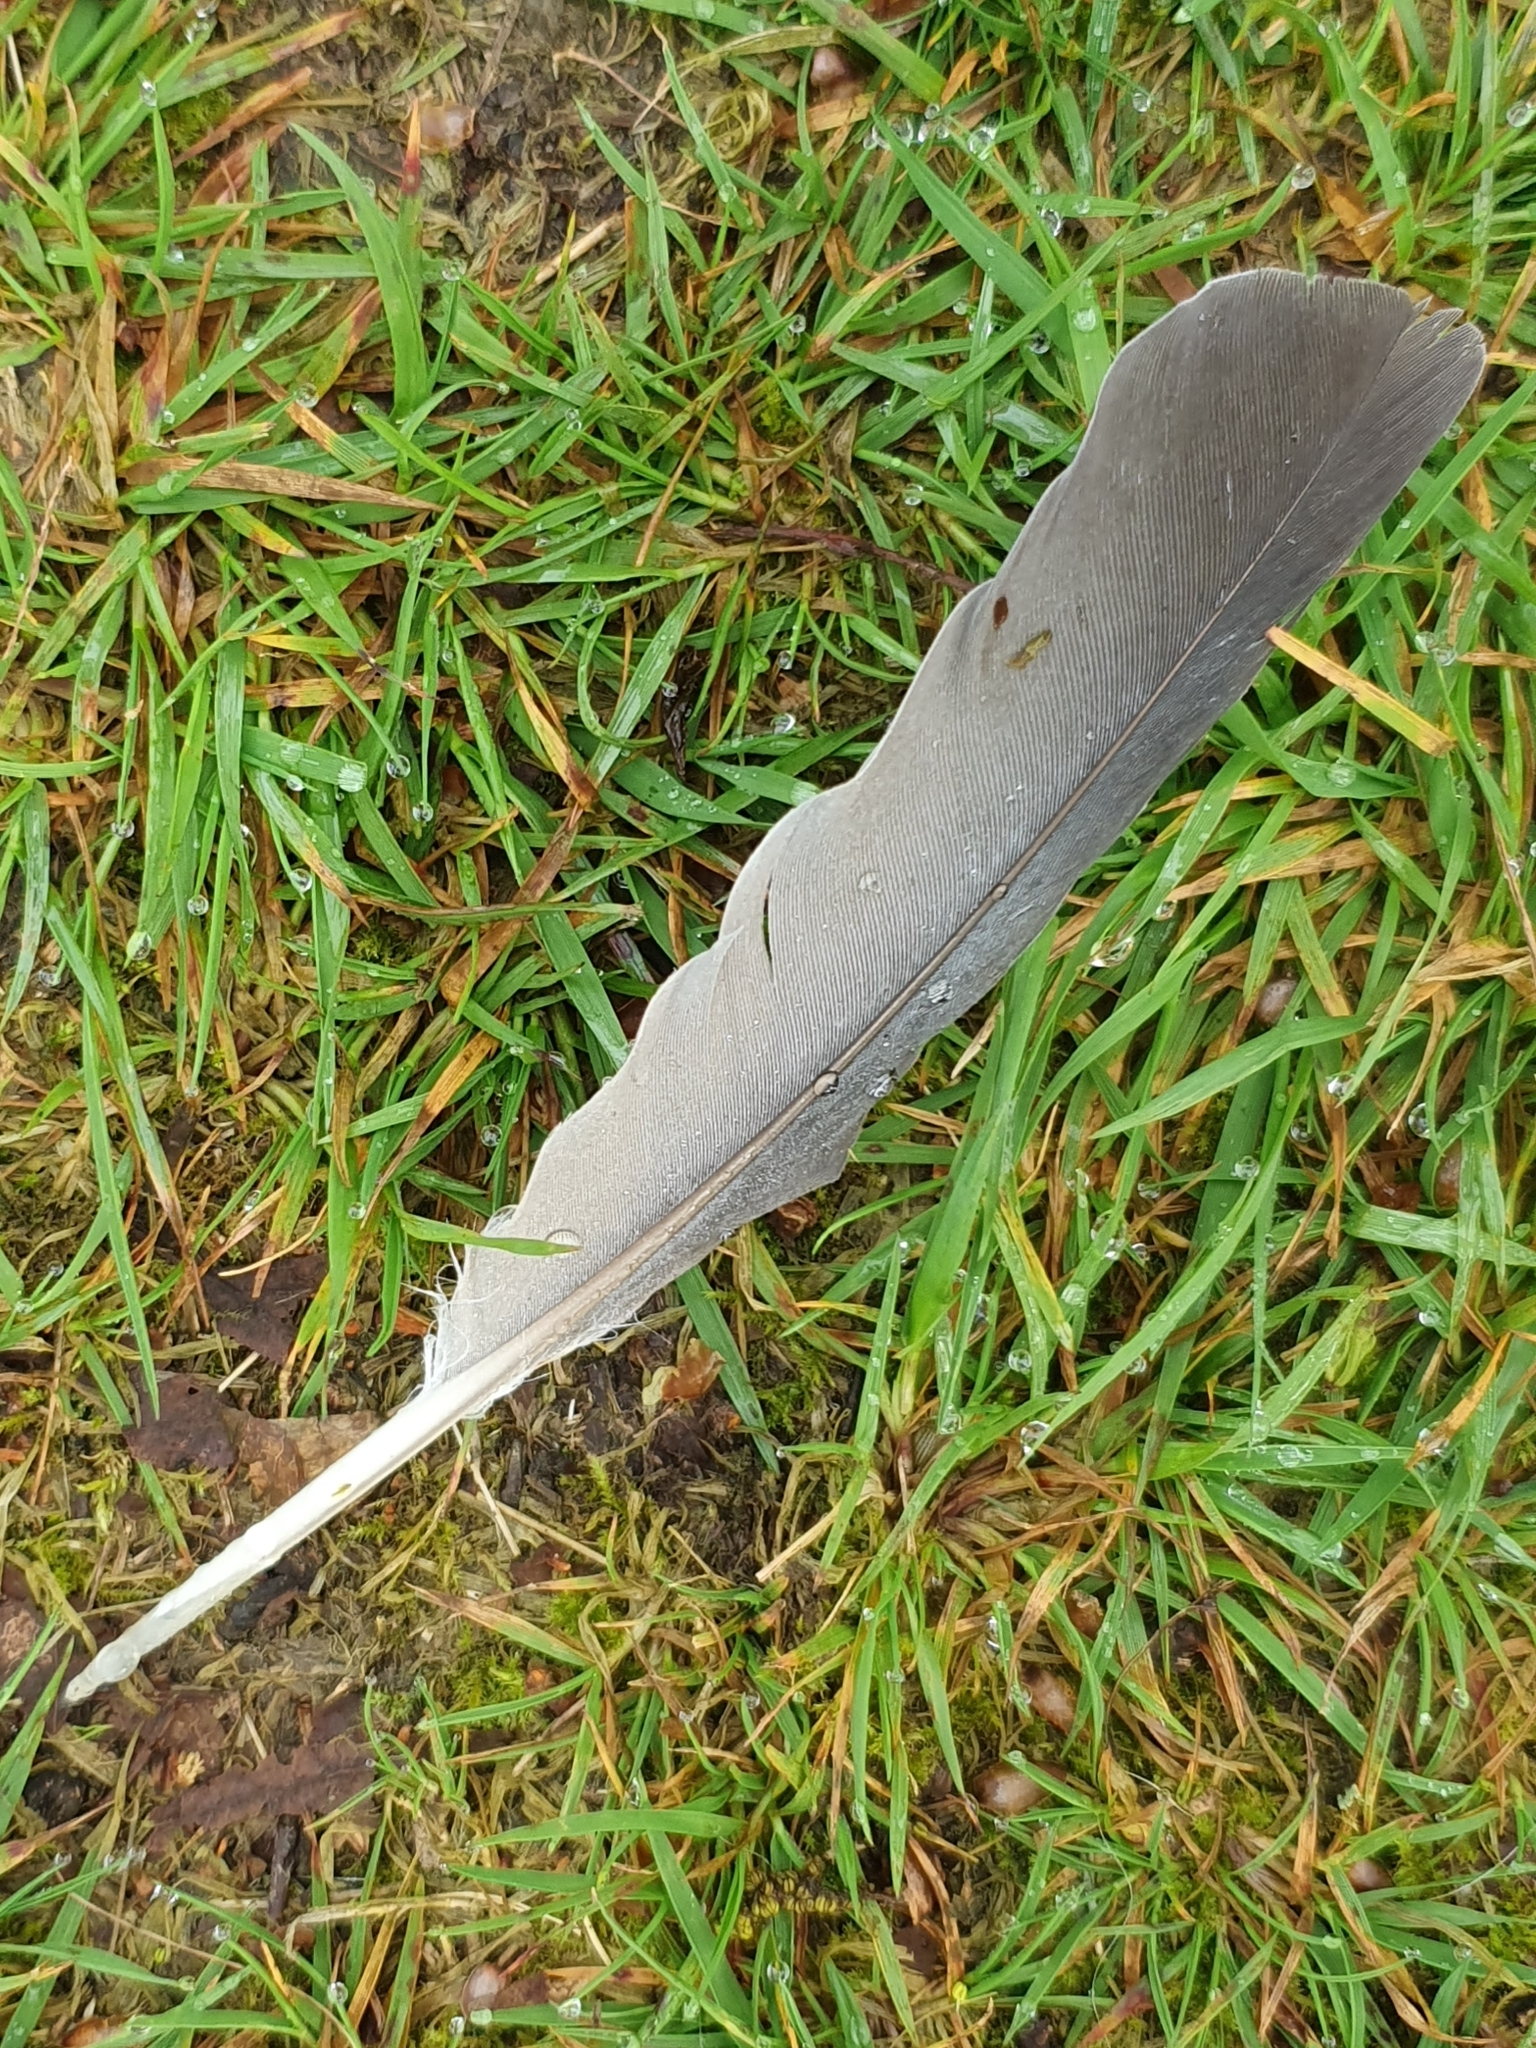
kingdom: Animalia
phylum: Chordata
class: Aves
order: Columbiformes
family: Columbidae
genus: Columba
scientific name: Columba palumbus
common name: Common wood pigeon
